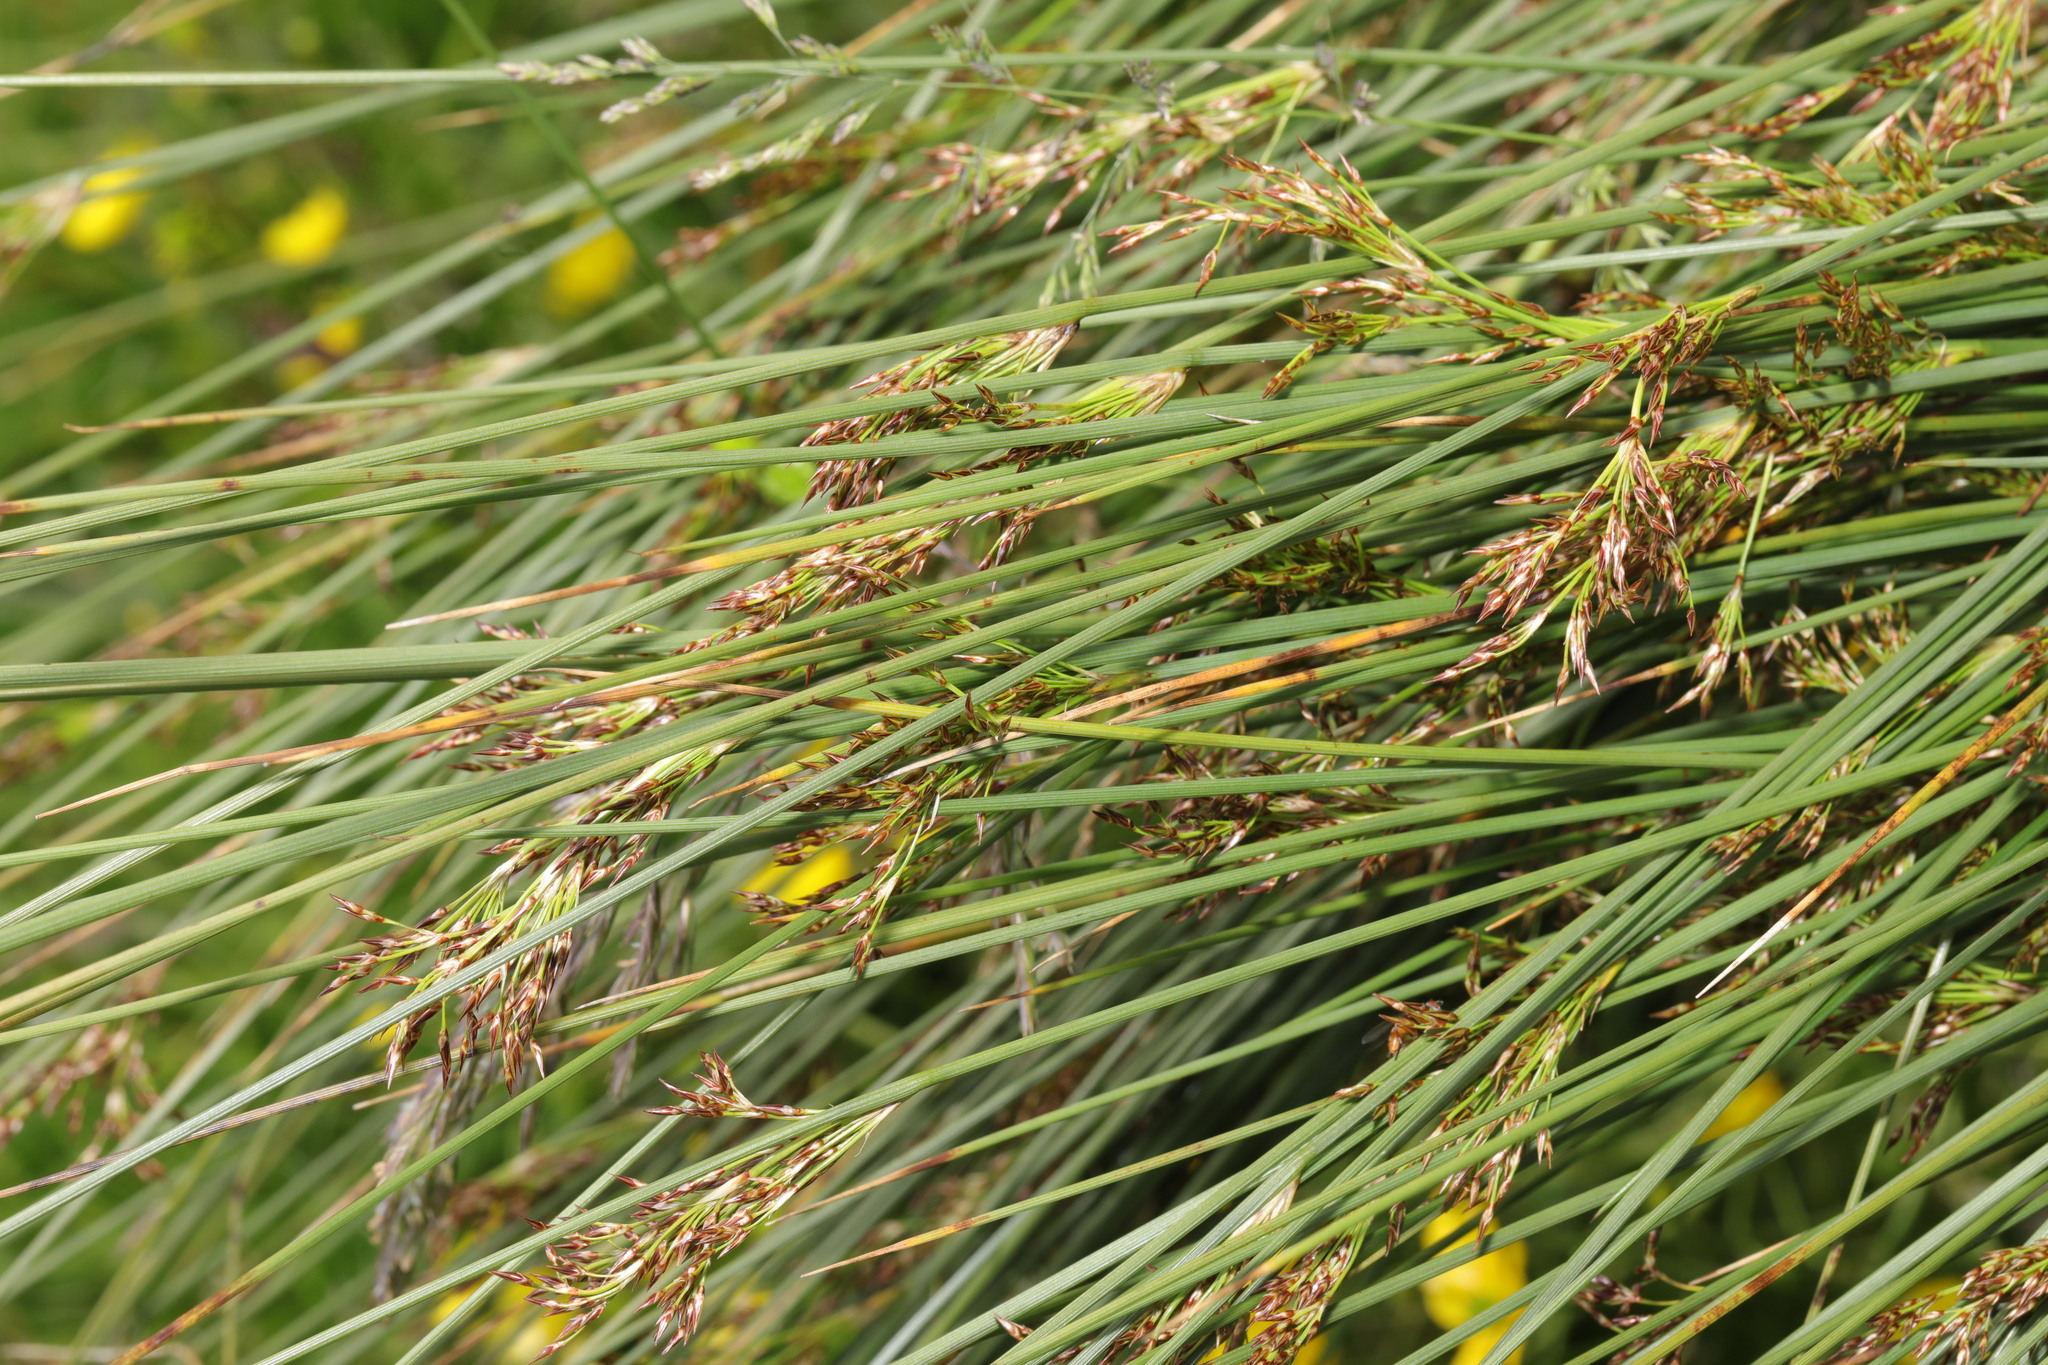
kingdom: Plantae
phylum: Tracheophyta
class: Liliopsida
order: Poales
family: Juncaceae
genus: Juncus
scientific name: Juncus inflexus
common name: Hard rush
